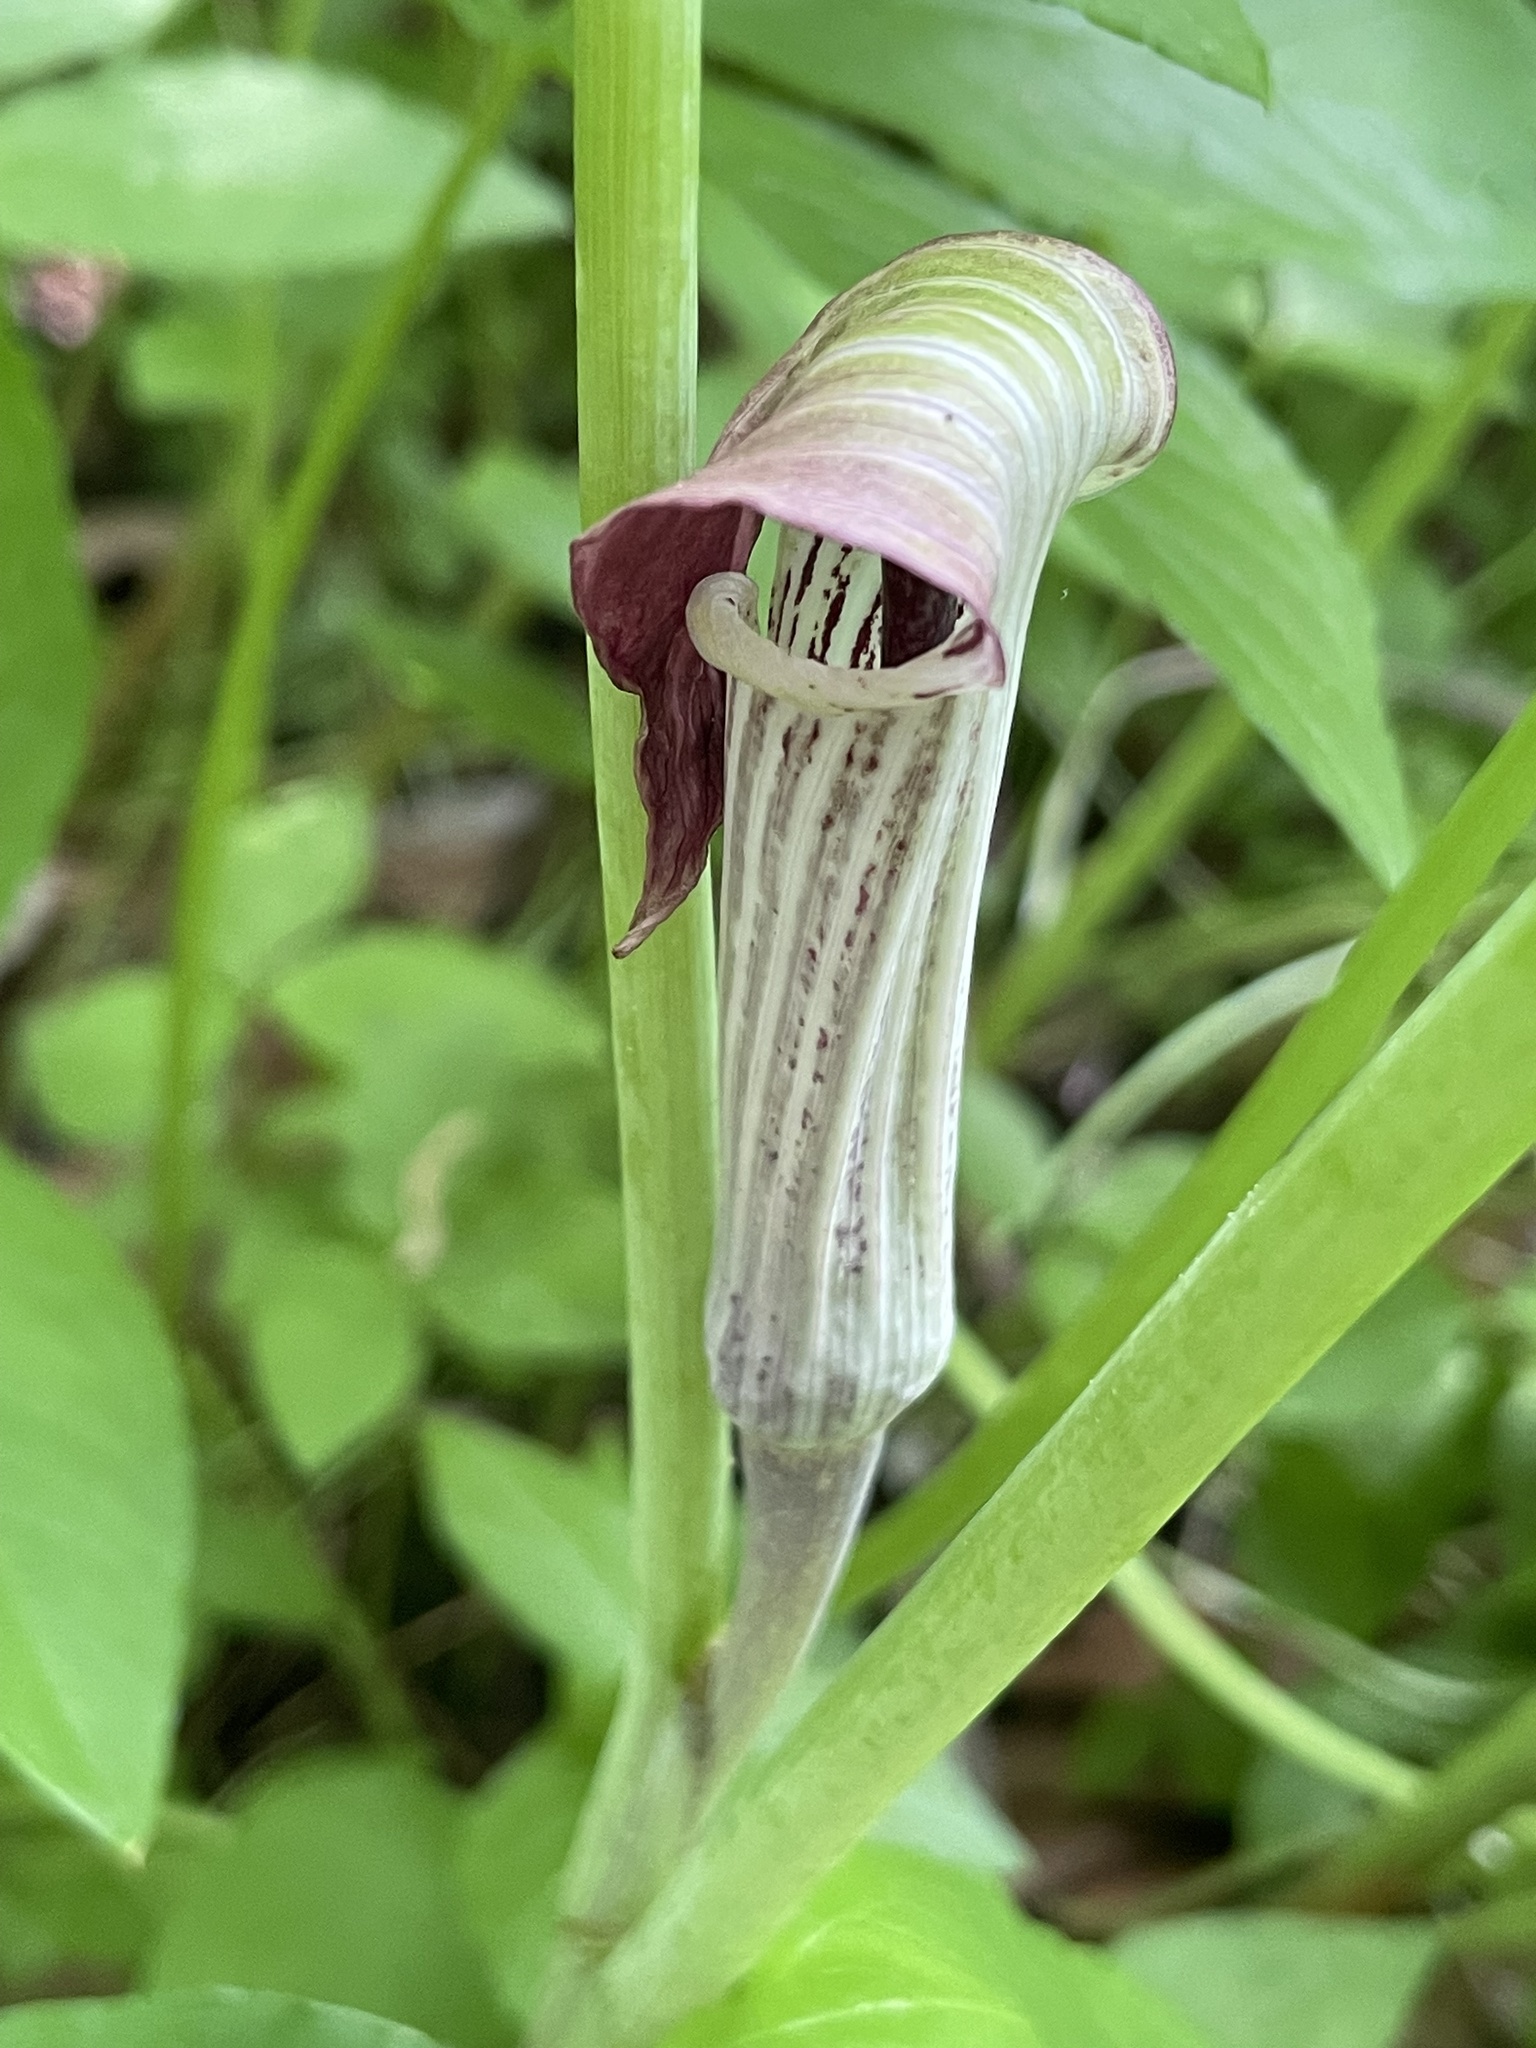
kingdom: Plantae
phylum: Tracheophyta
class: Liliopsida
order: Alismatales
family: Araceae
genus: Arisaema
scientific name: Arisaema triphyllum
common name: Jack-in-the-pulpit
